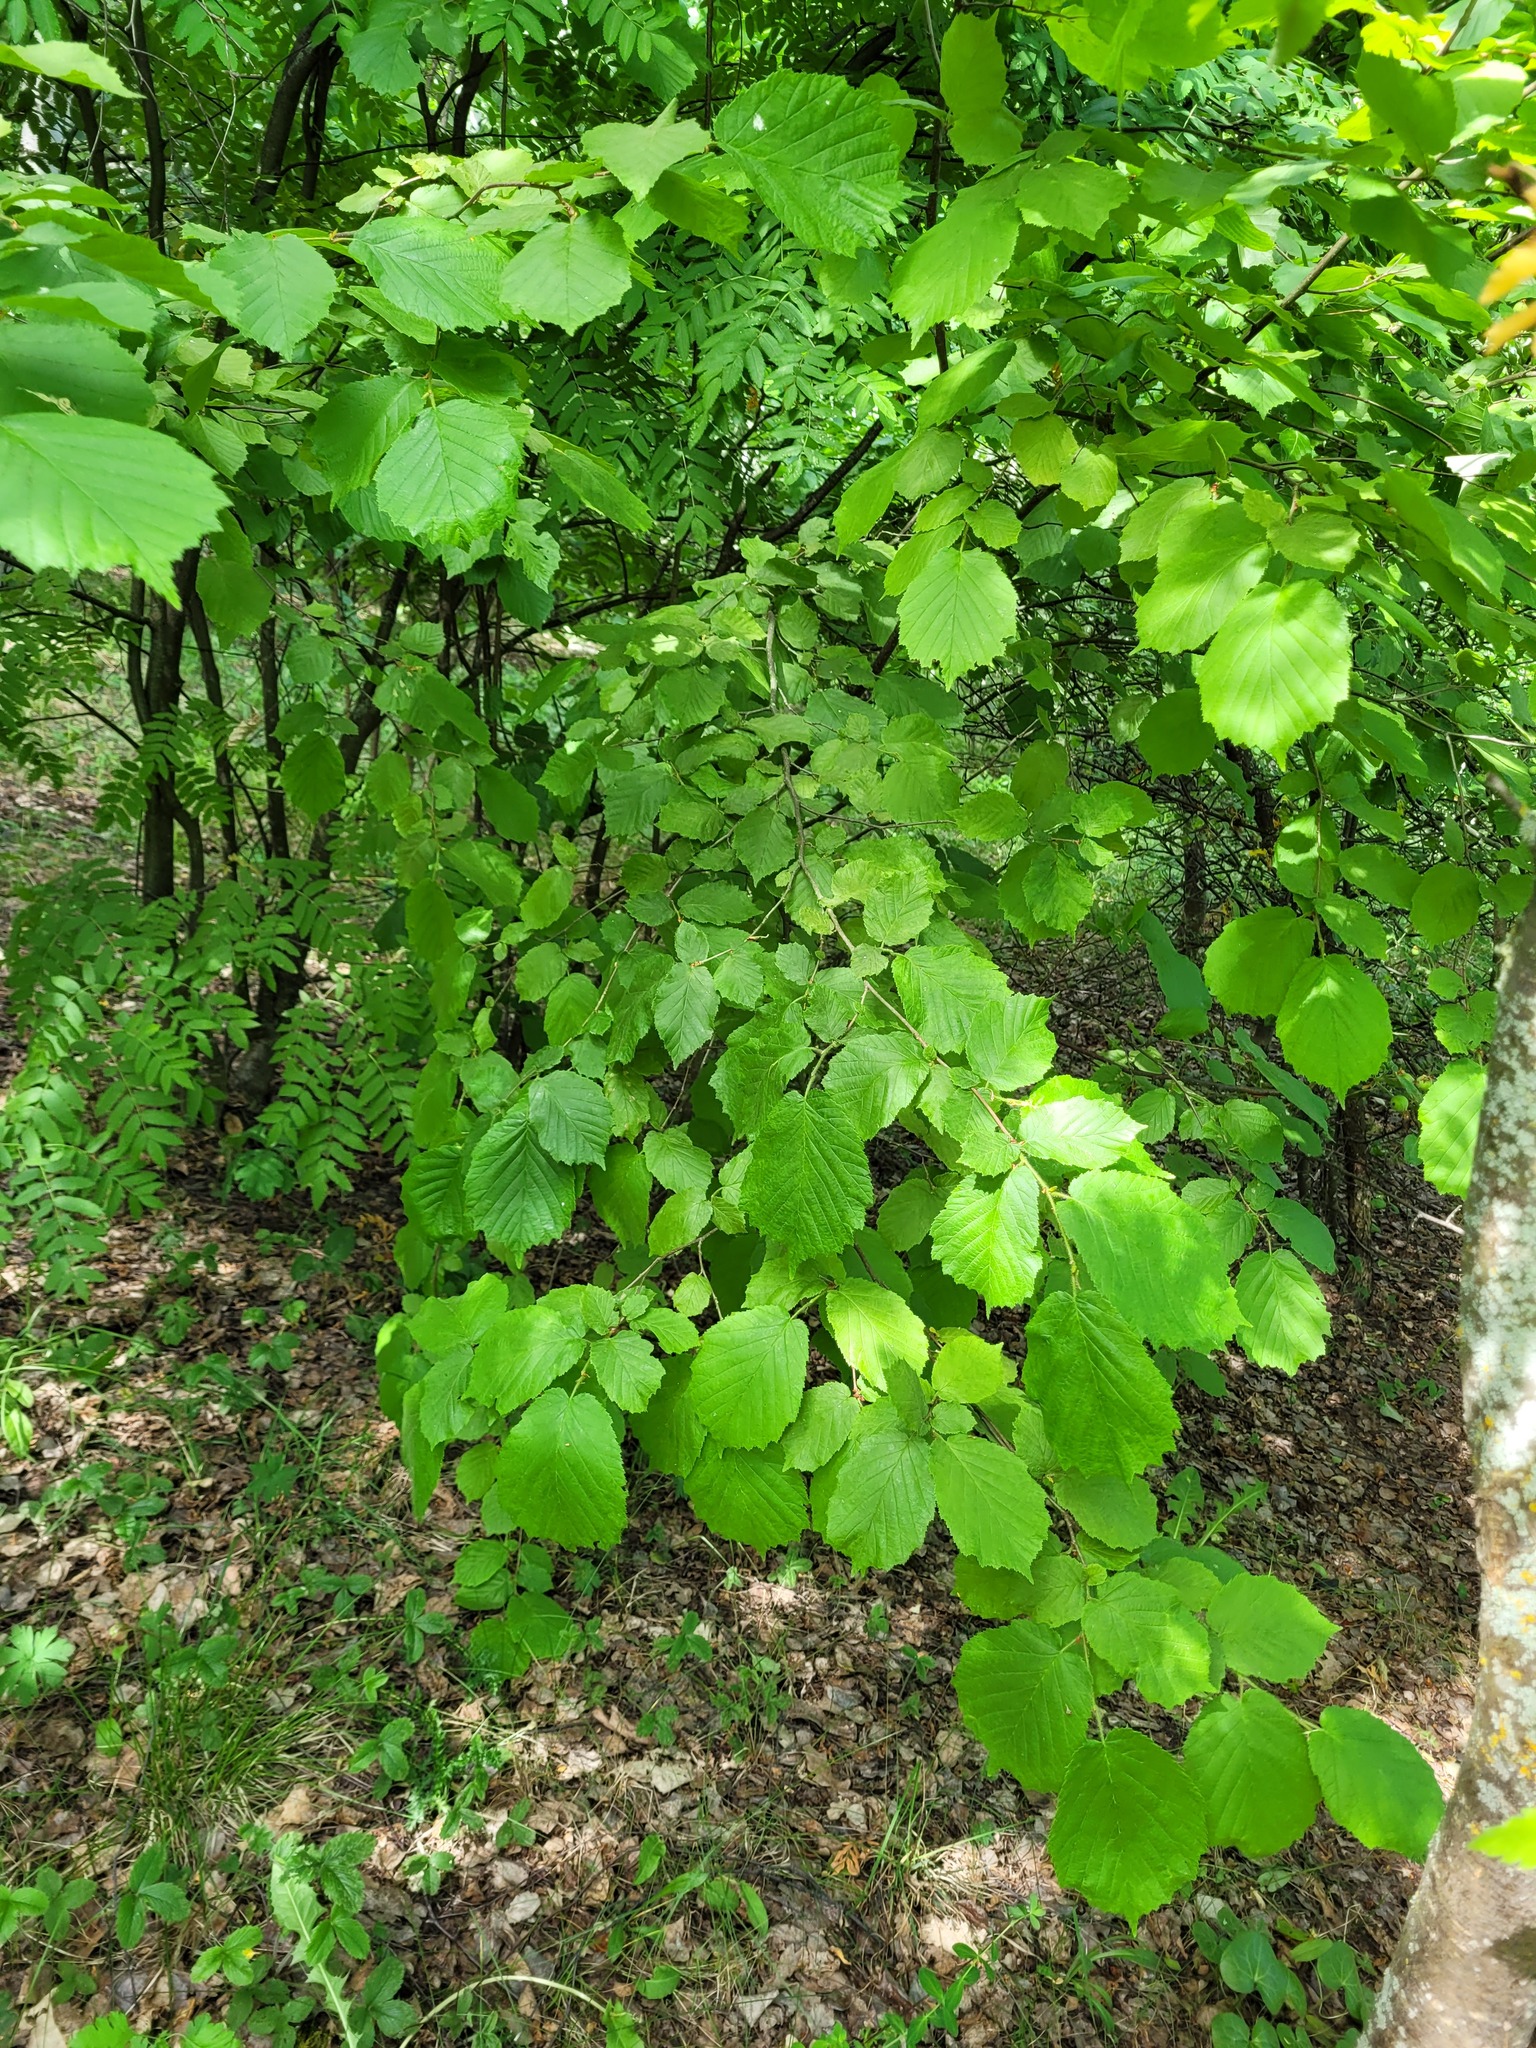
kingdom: Plantae
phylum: Tracheophyta
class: Magnoliopsida
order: Fagales
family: Betulaceae
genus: Corylus
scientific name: Corylus avellana
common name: European hazel
